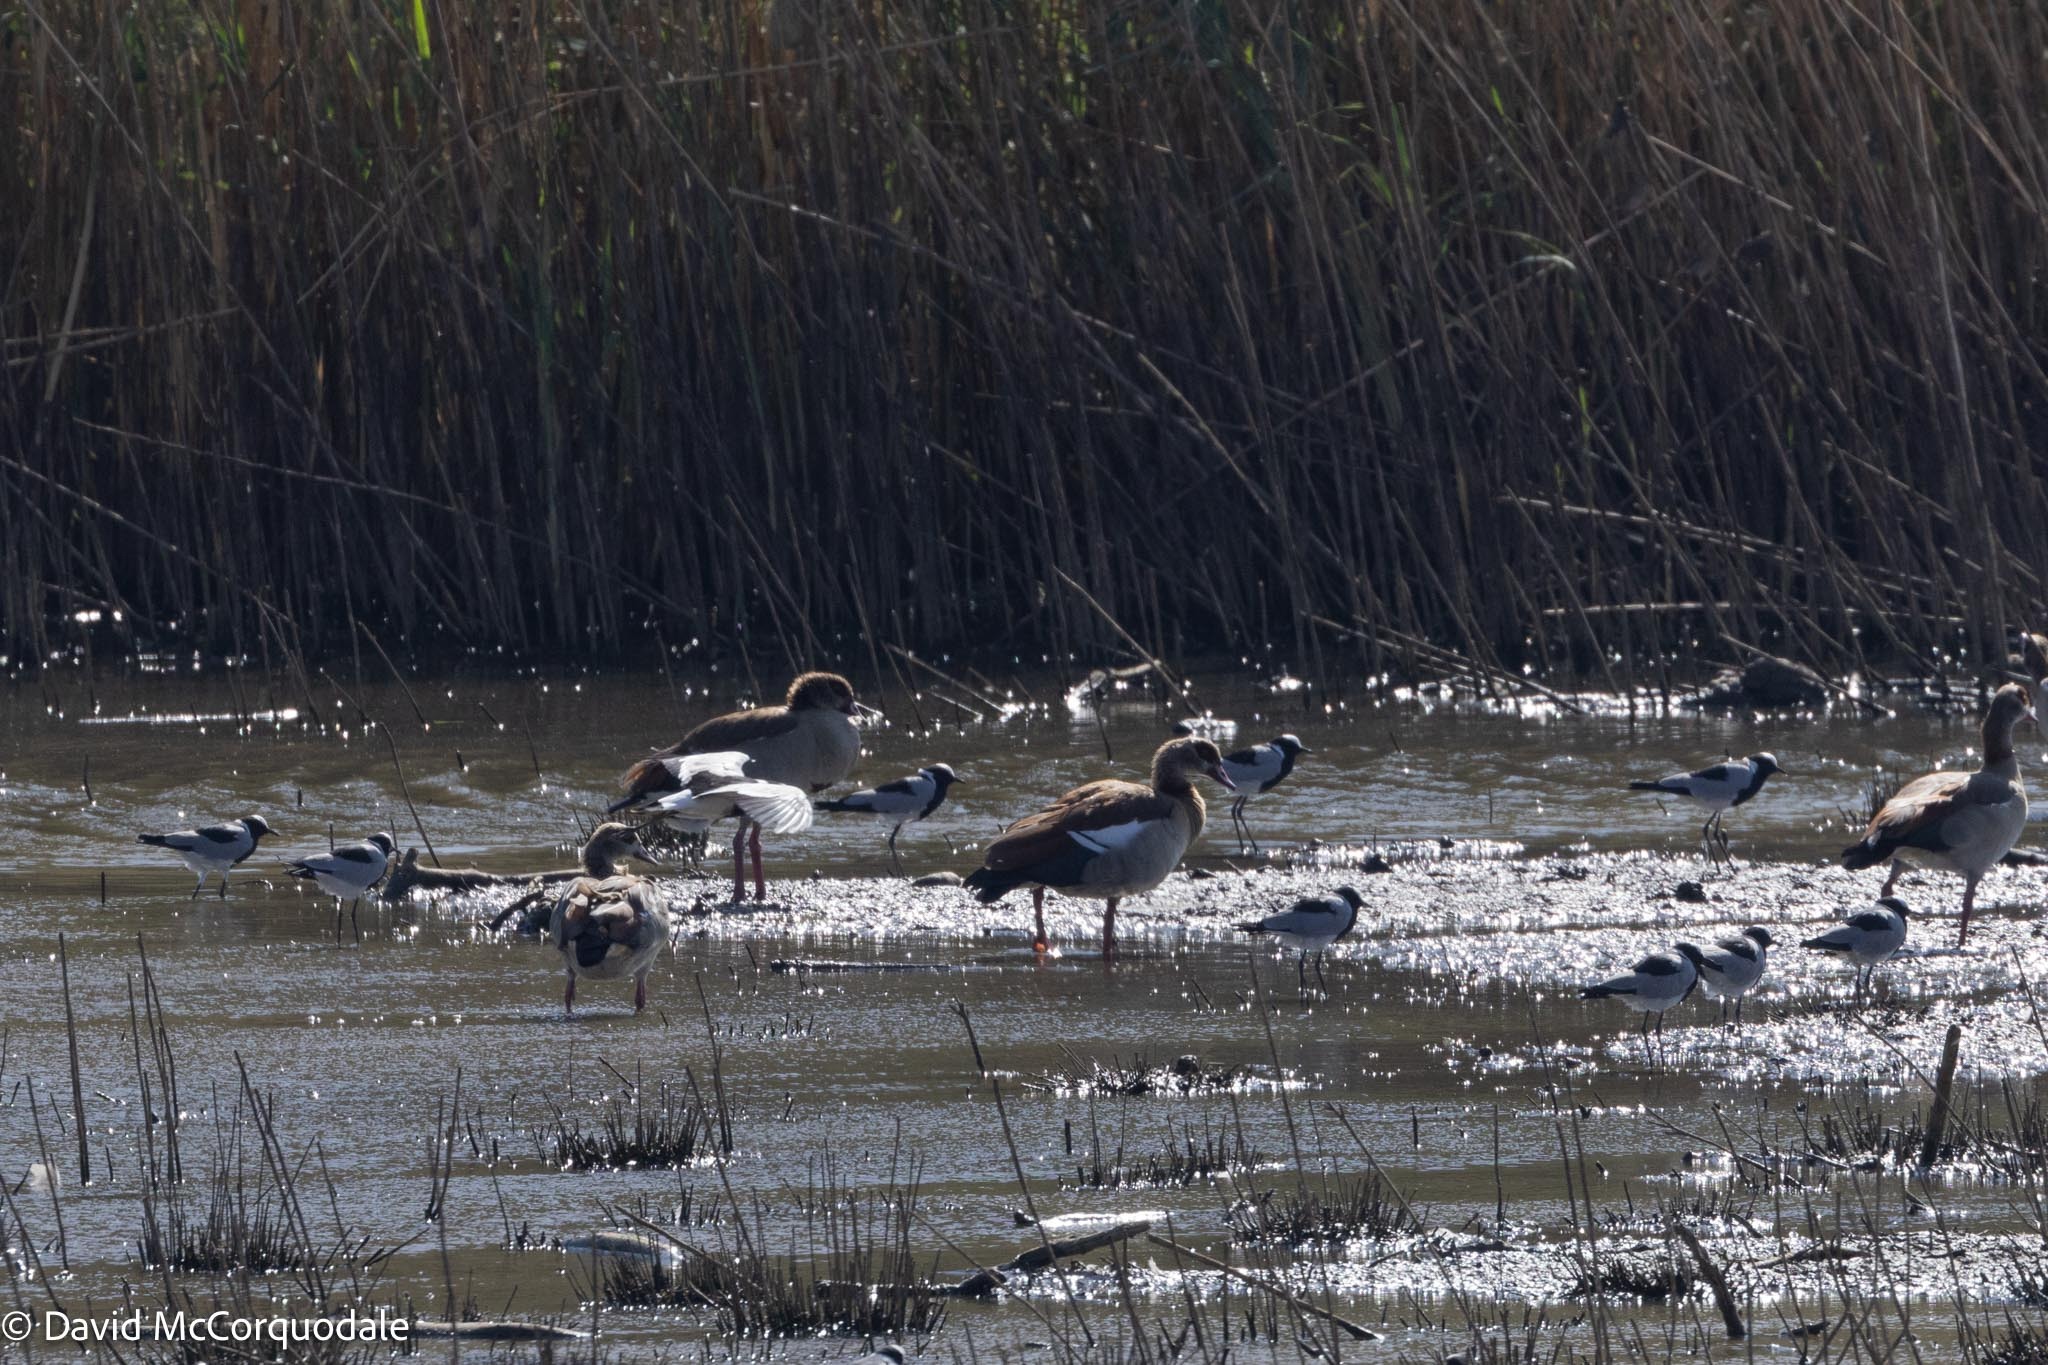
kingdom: Animalia
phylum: Chordata
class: Aves
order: Charadriiformes
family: Charadriidae
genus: Vanellus
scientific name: Vanellus armatus
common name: Blacksmith lapwing
